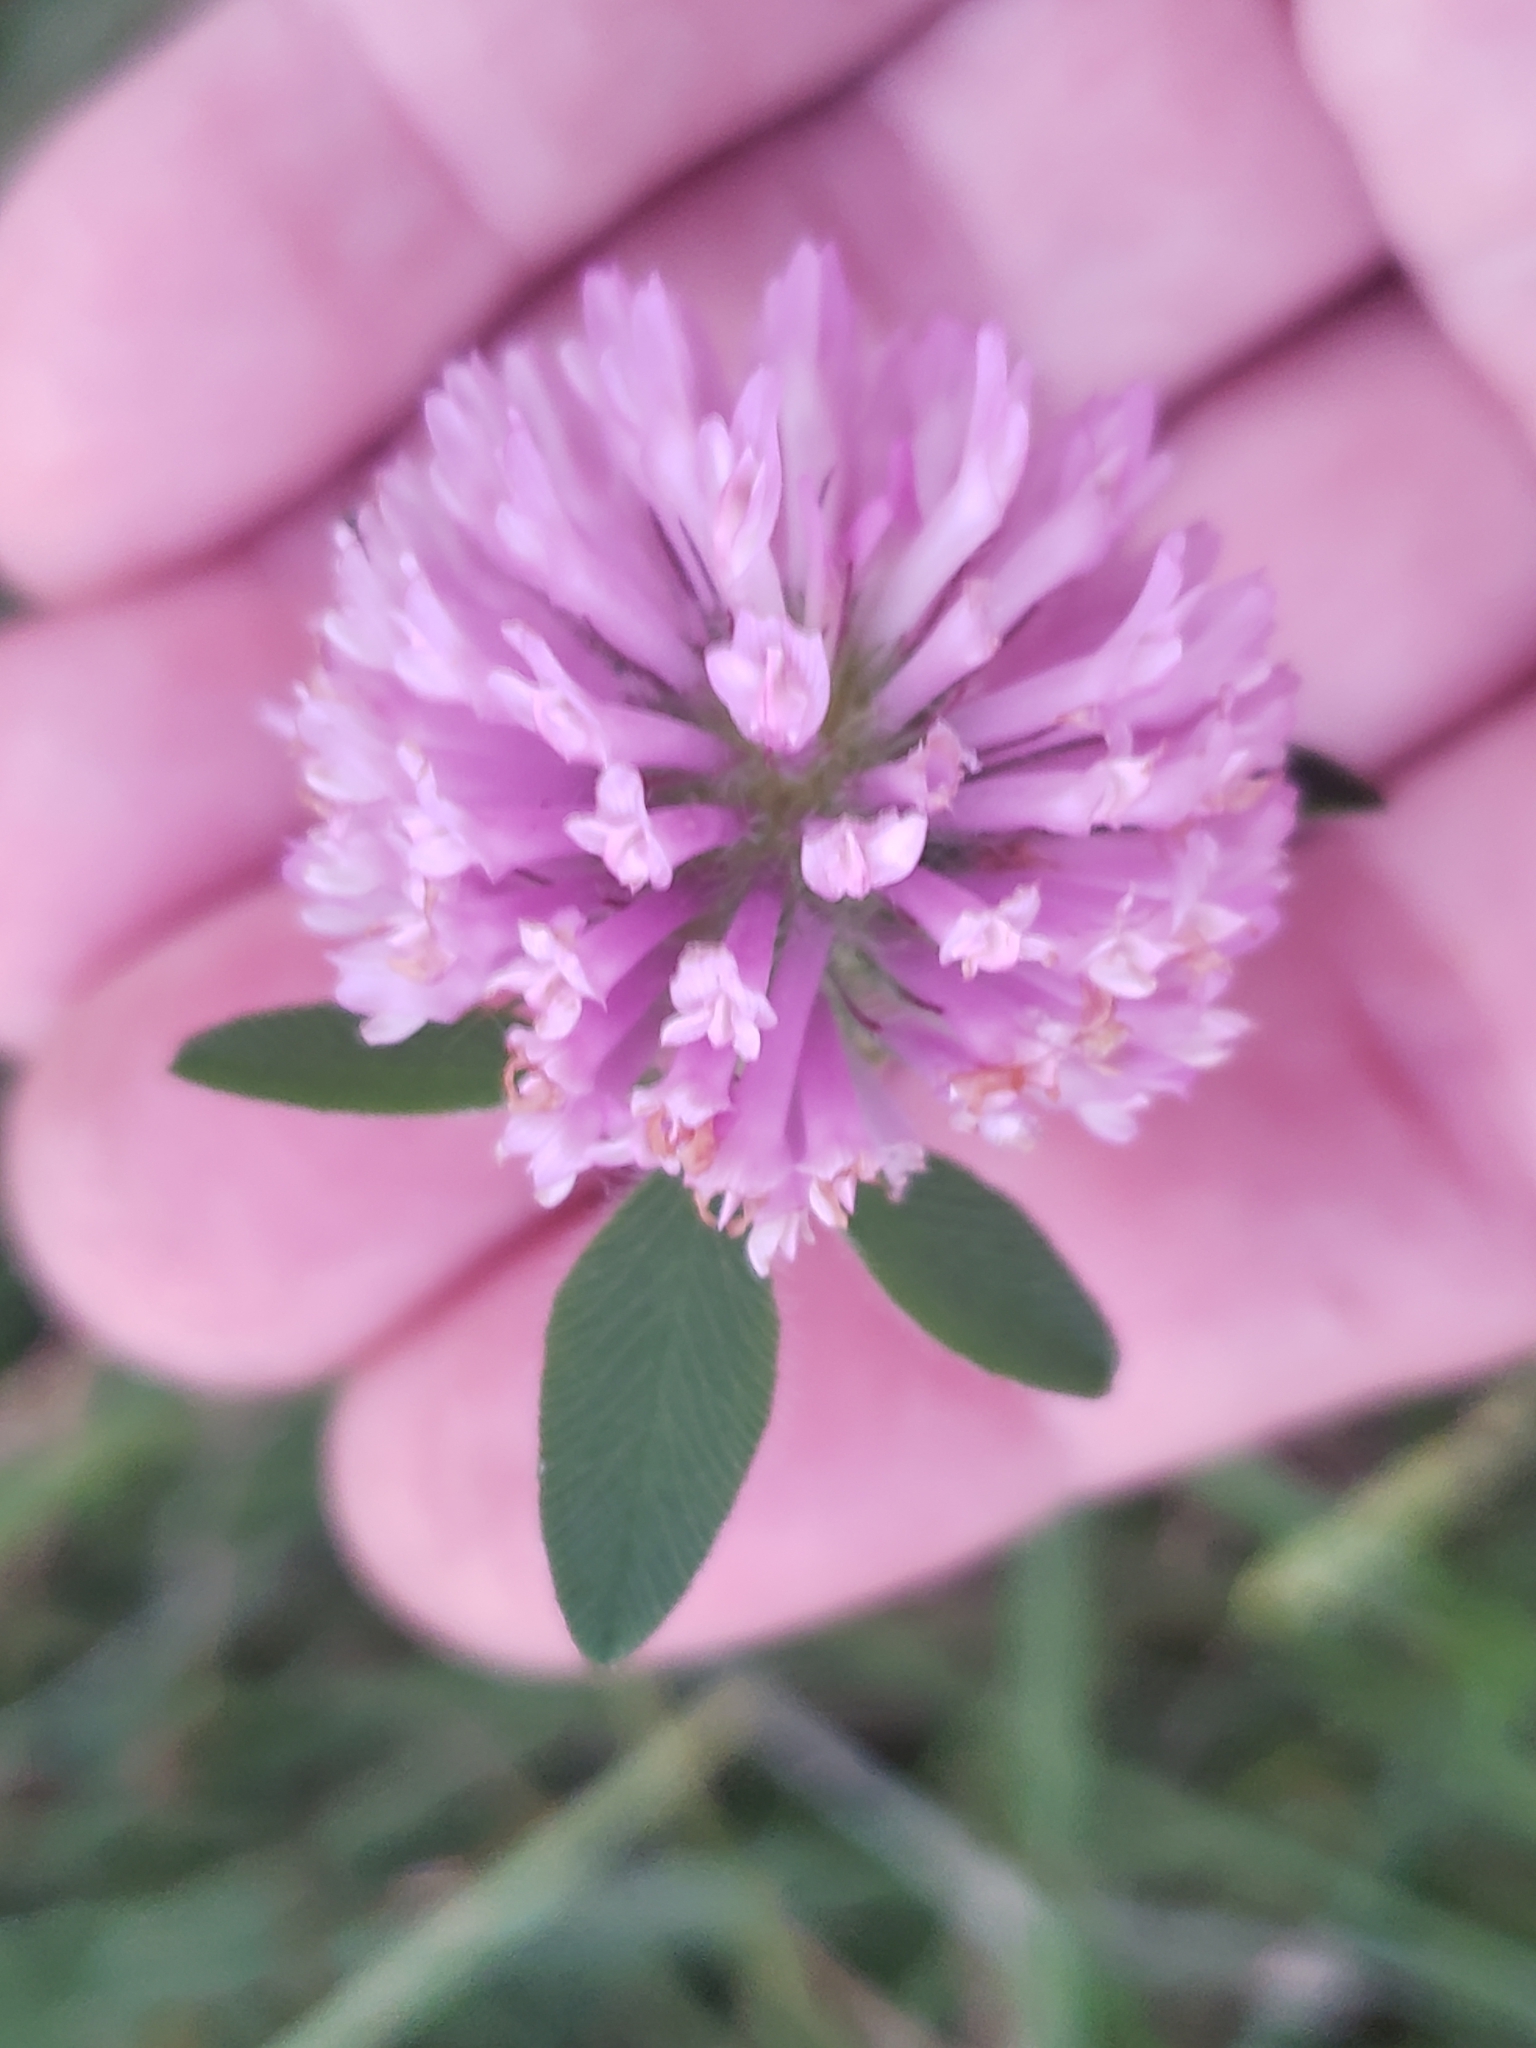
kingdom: Plantae
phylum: Tracheophyta
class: Magnoliopsida
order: Fabales
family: Fabaceae
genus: Trifolium
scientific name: Trifolium pratense
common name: Red clover
